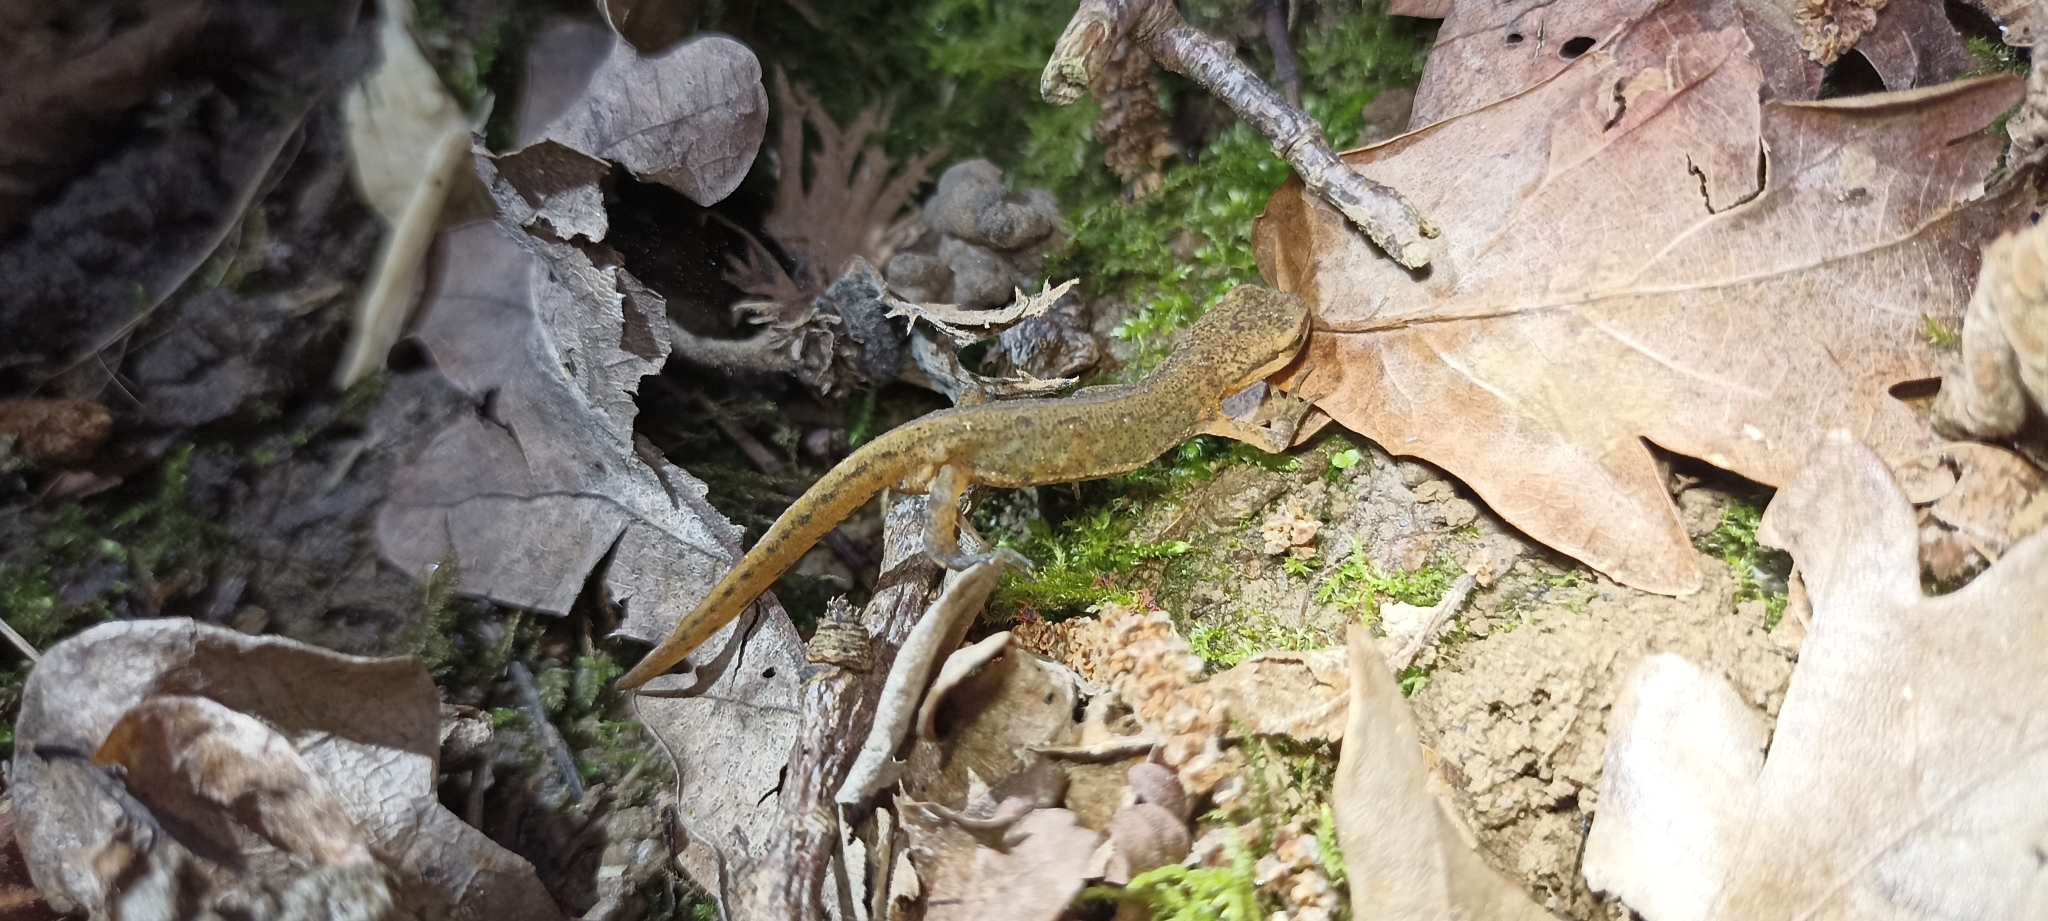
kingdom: Animalia
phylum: Chordata
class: Amphibia
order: Caudata
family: Salamandridae
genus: Lissotriton
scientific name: Lissotriton helveticus
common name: Palmate newt
